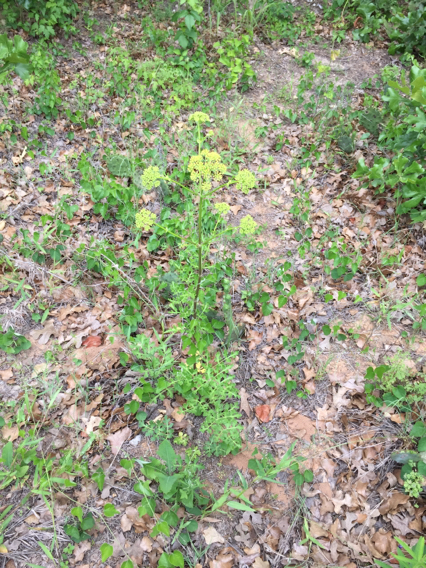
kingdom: Plantae
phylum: Tracheophyta
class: Magnoliopsida
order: Apiales
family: Apiaceae
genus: Polytaenia
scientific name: Polytaenia texana
